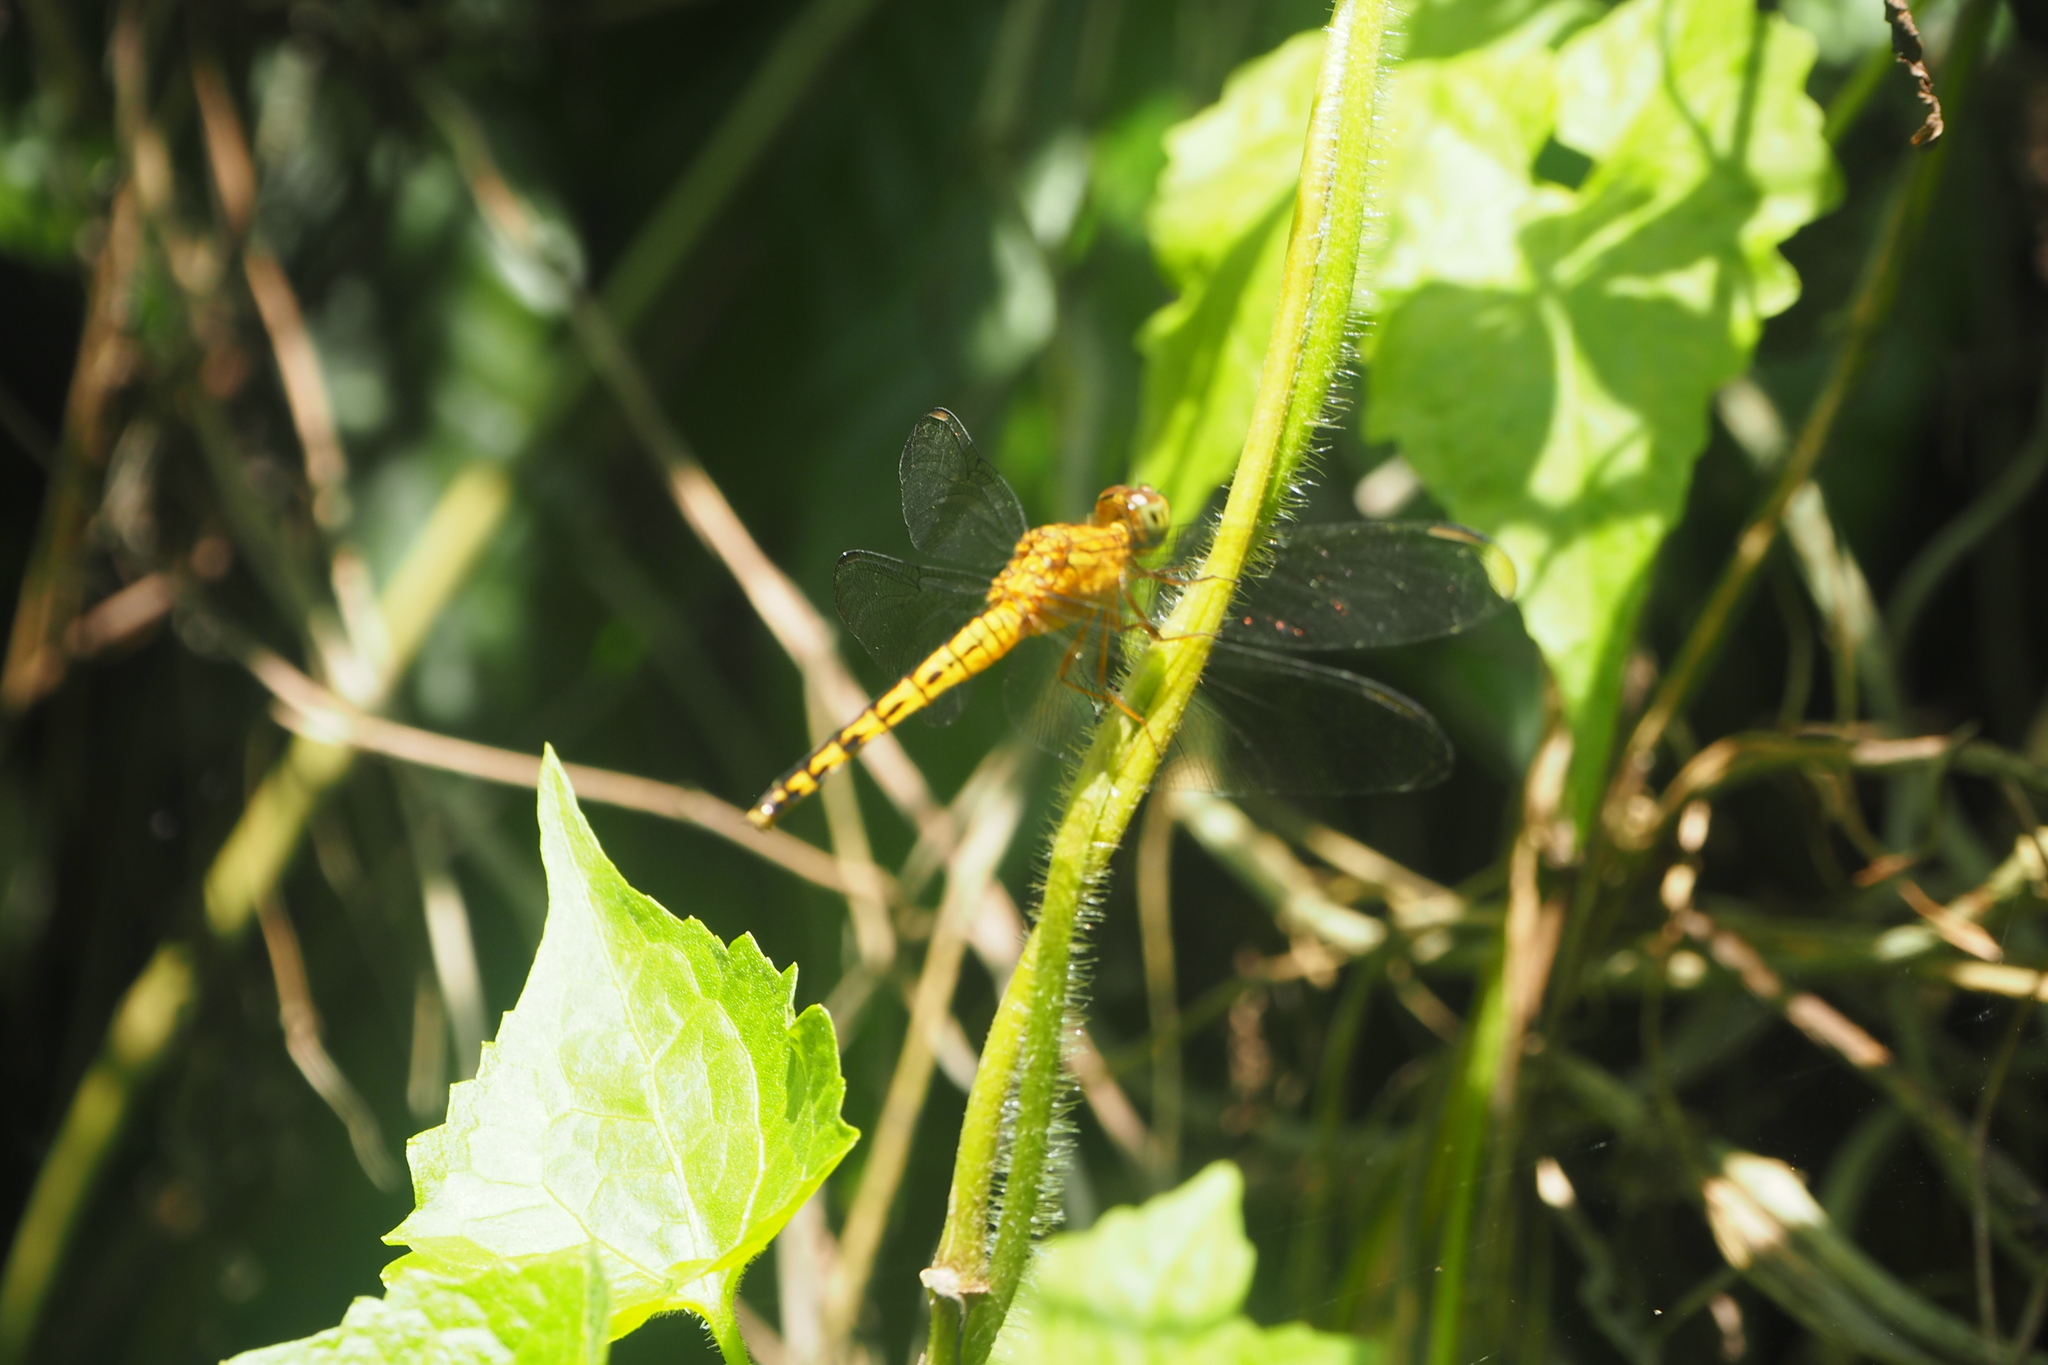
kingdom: Animalia
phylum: Arthropoda
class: Insecta
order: Odonata
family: Libellulidae
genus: Neurothemis
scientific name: Neurothemis terminata
